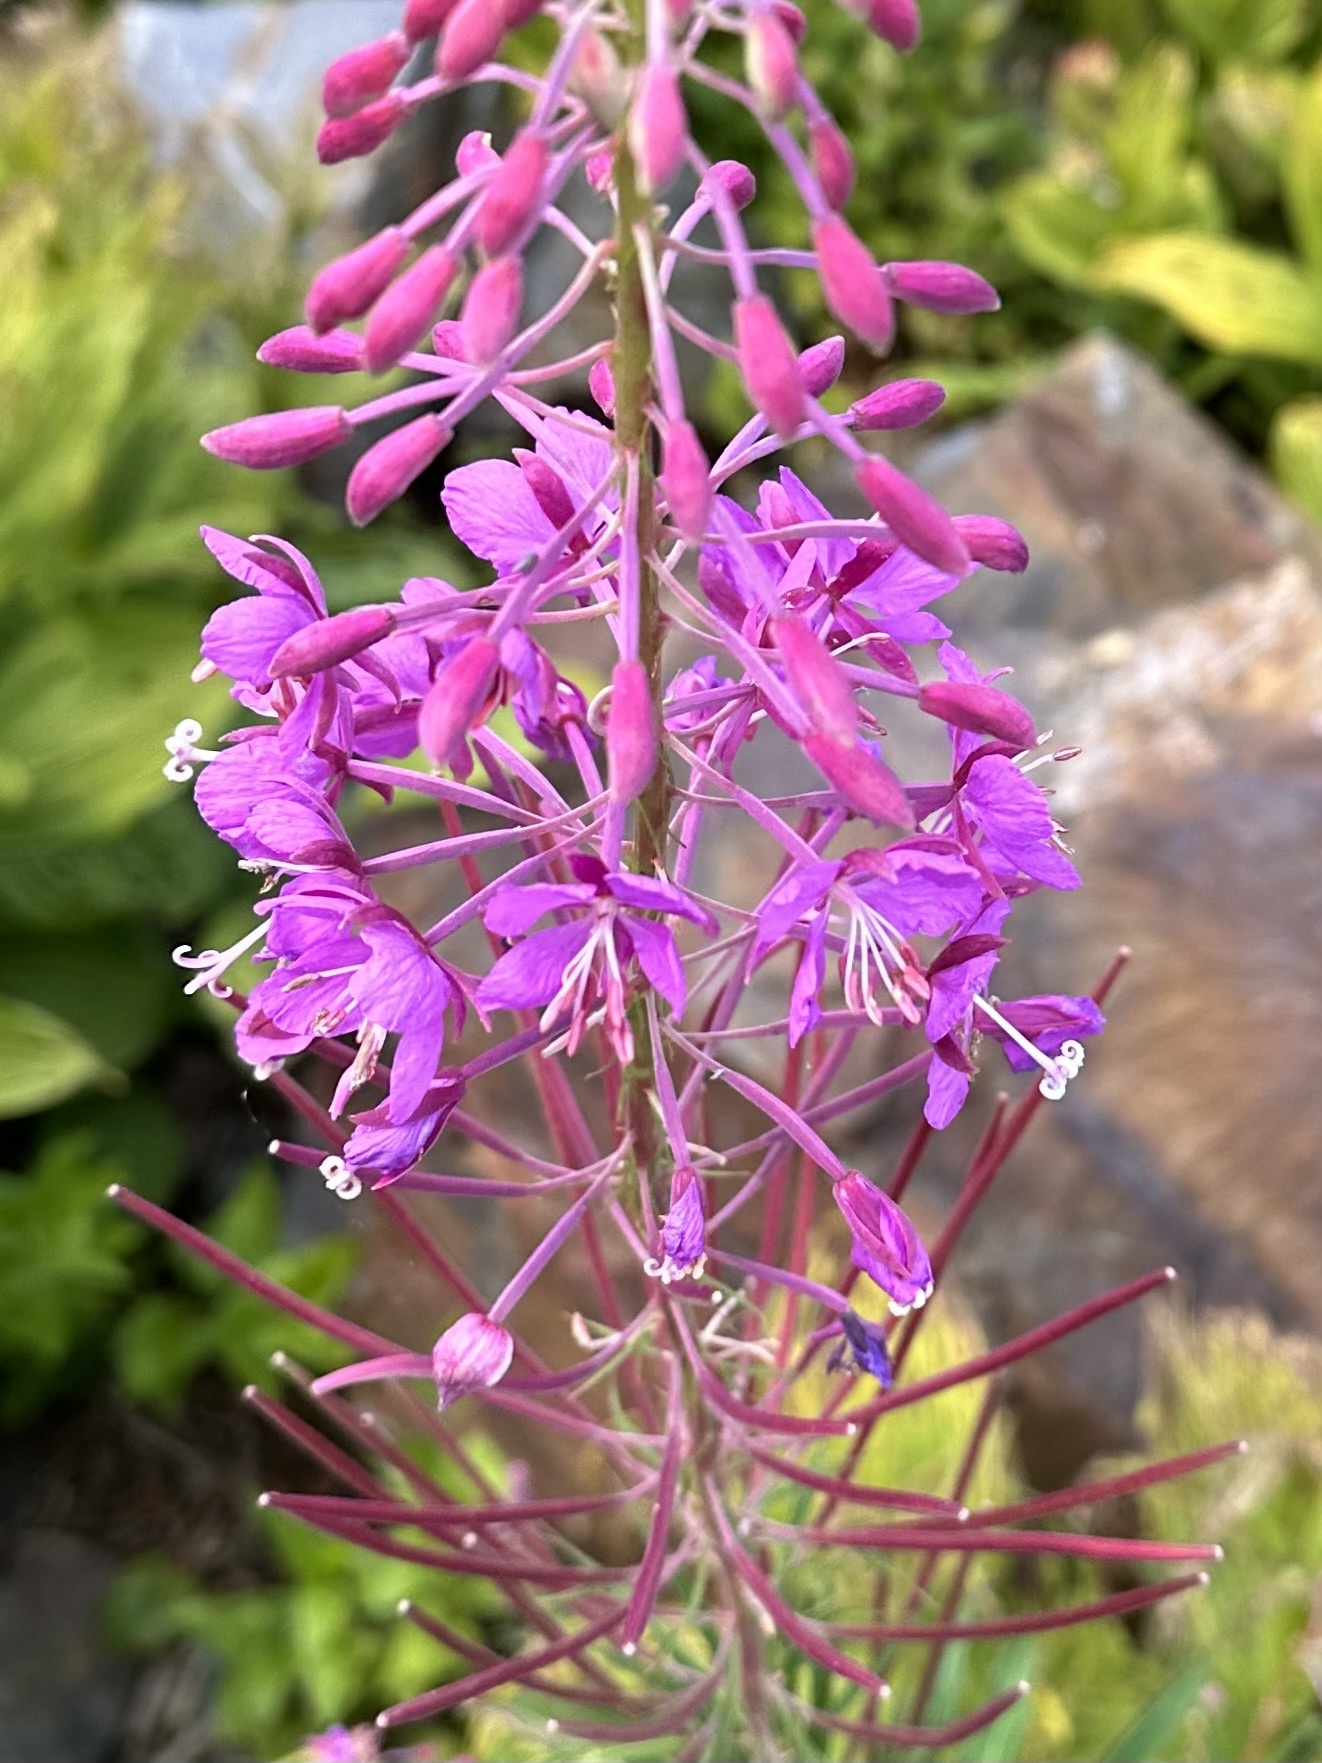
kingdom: Plantae
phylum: Tracheophyta
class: Magnoliopsida
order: Myrtales
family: Onagraceae
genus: Chamaenerion
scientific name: Chamaenerion angustifolium
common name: Fireweed
